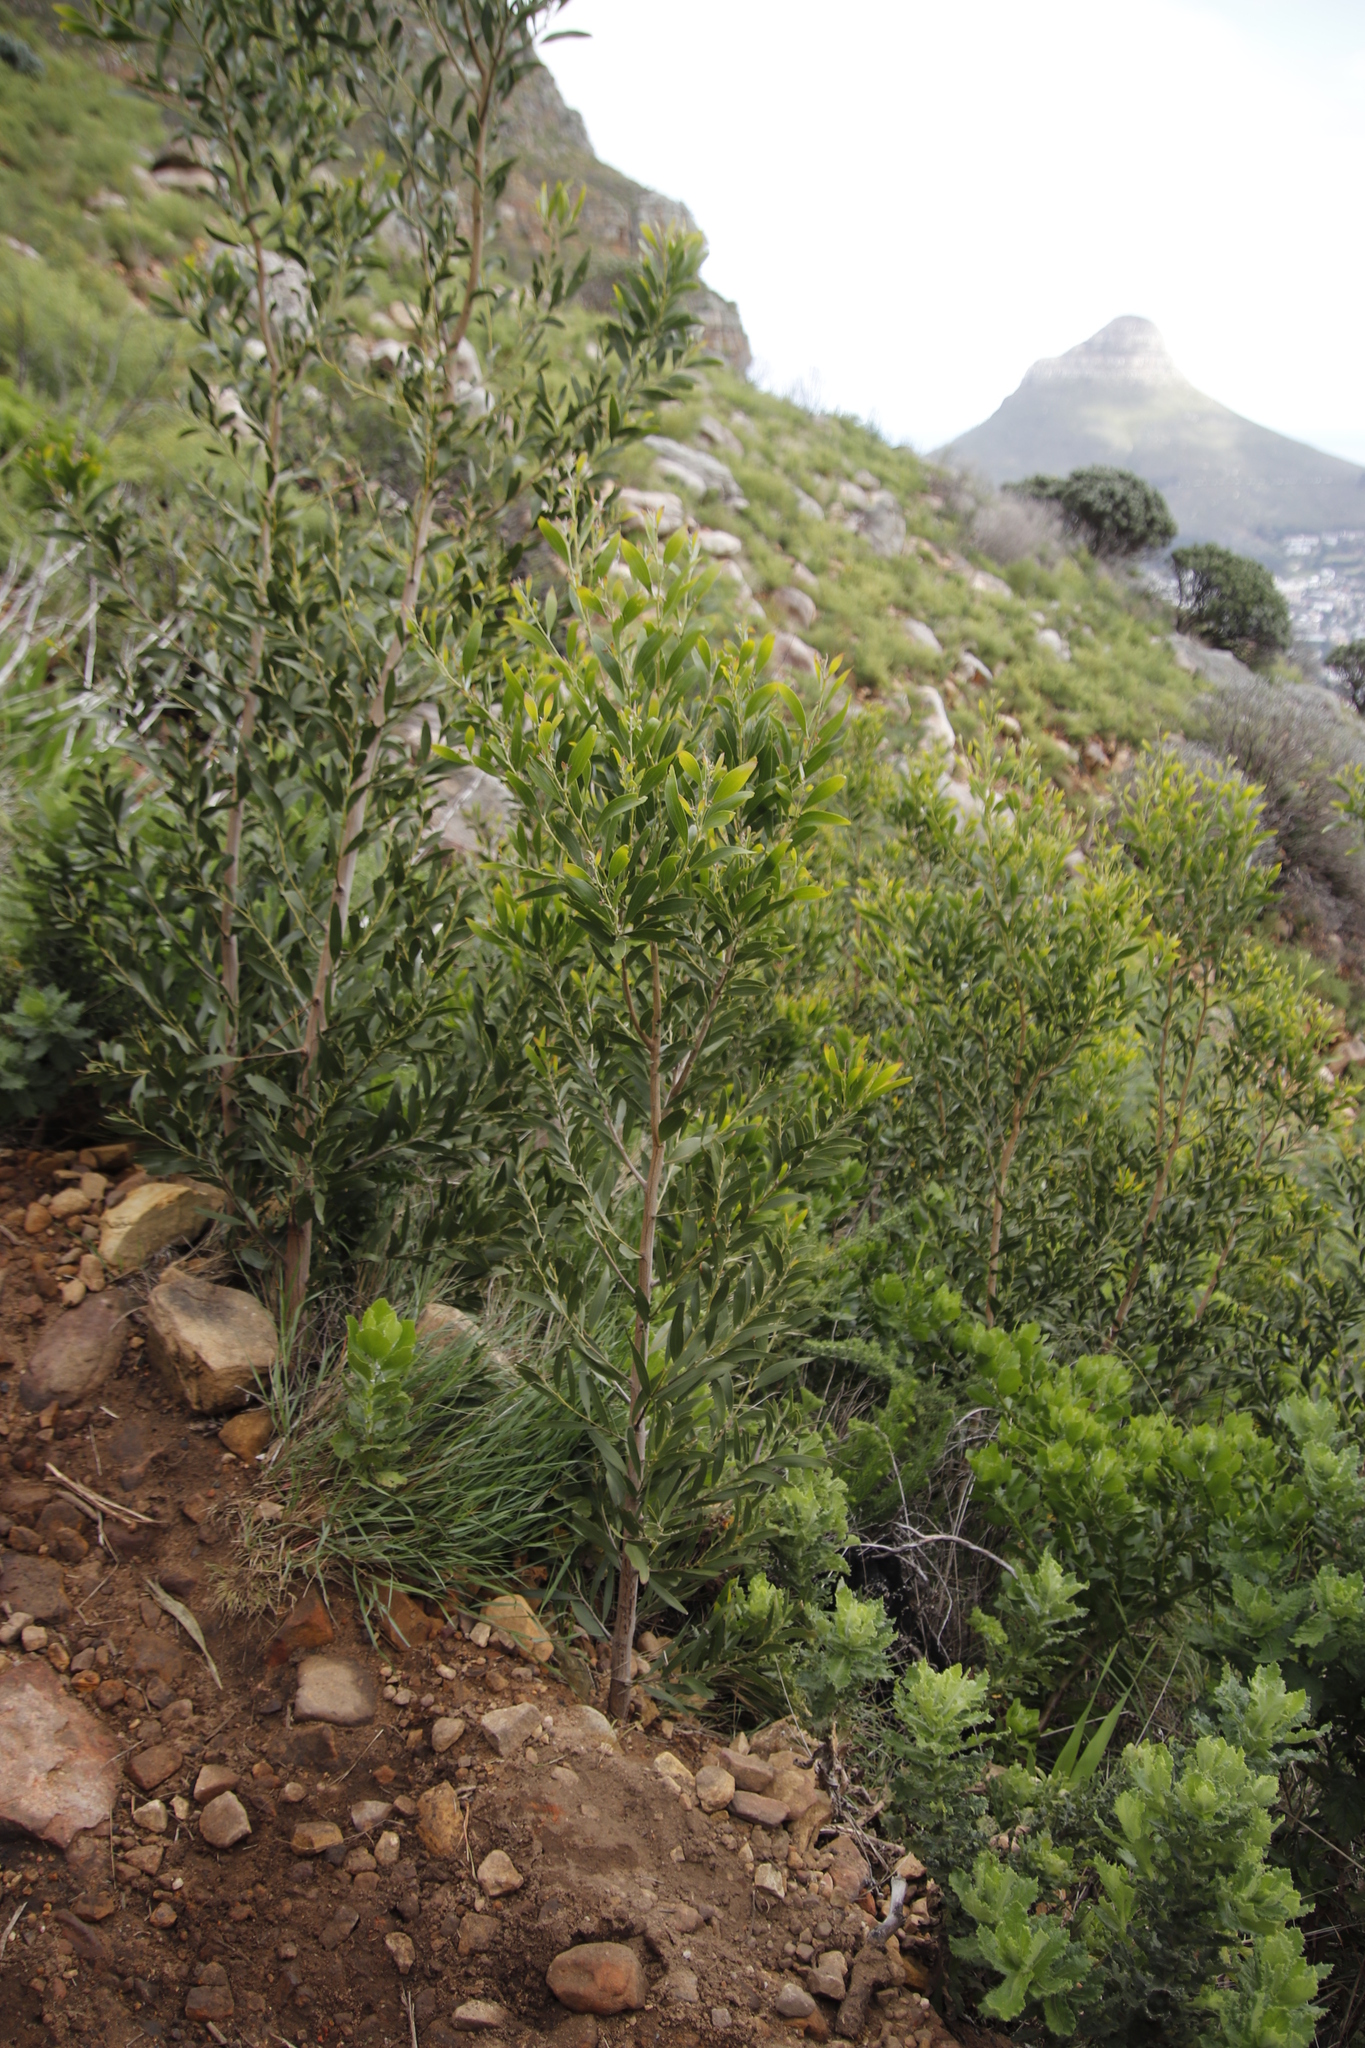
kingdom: Plantae
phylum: Tracheophyta
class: Magnoliopsida
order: Fabales
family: Fabaceae
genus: Acacia
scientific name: Acacia melanoxylon
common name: Blackwood
